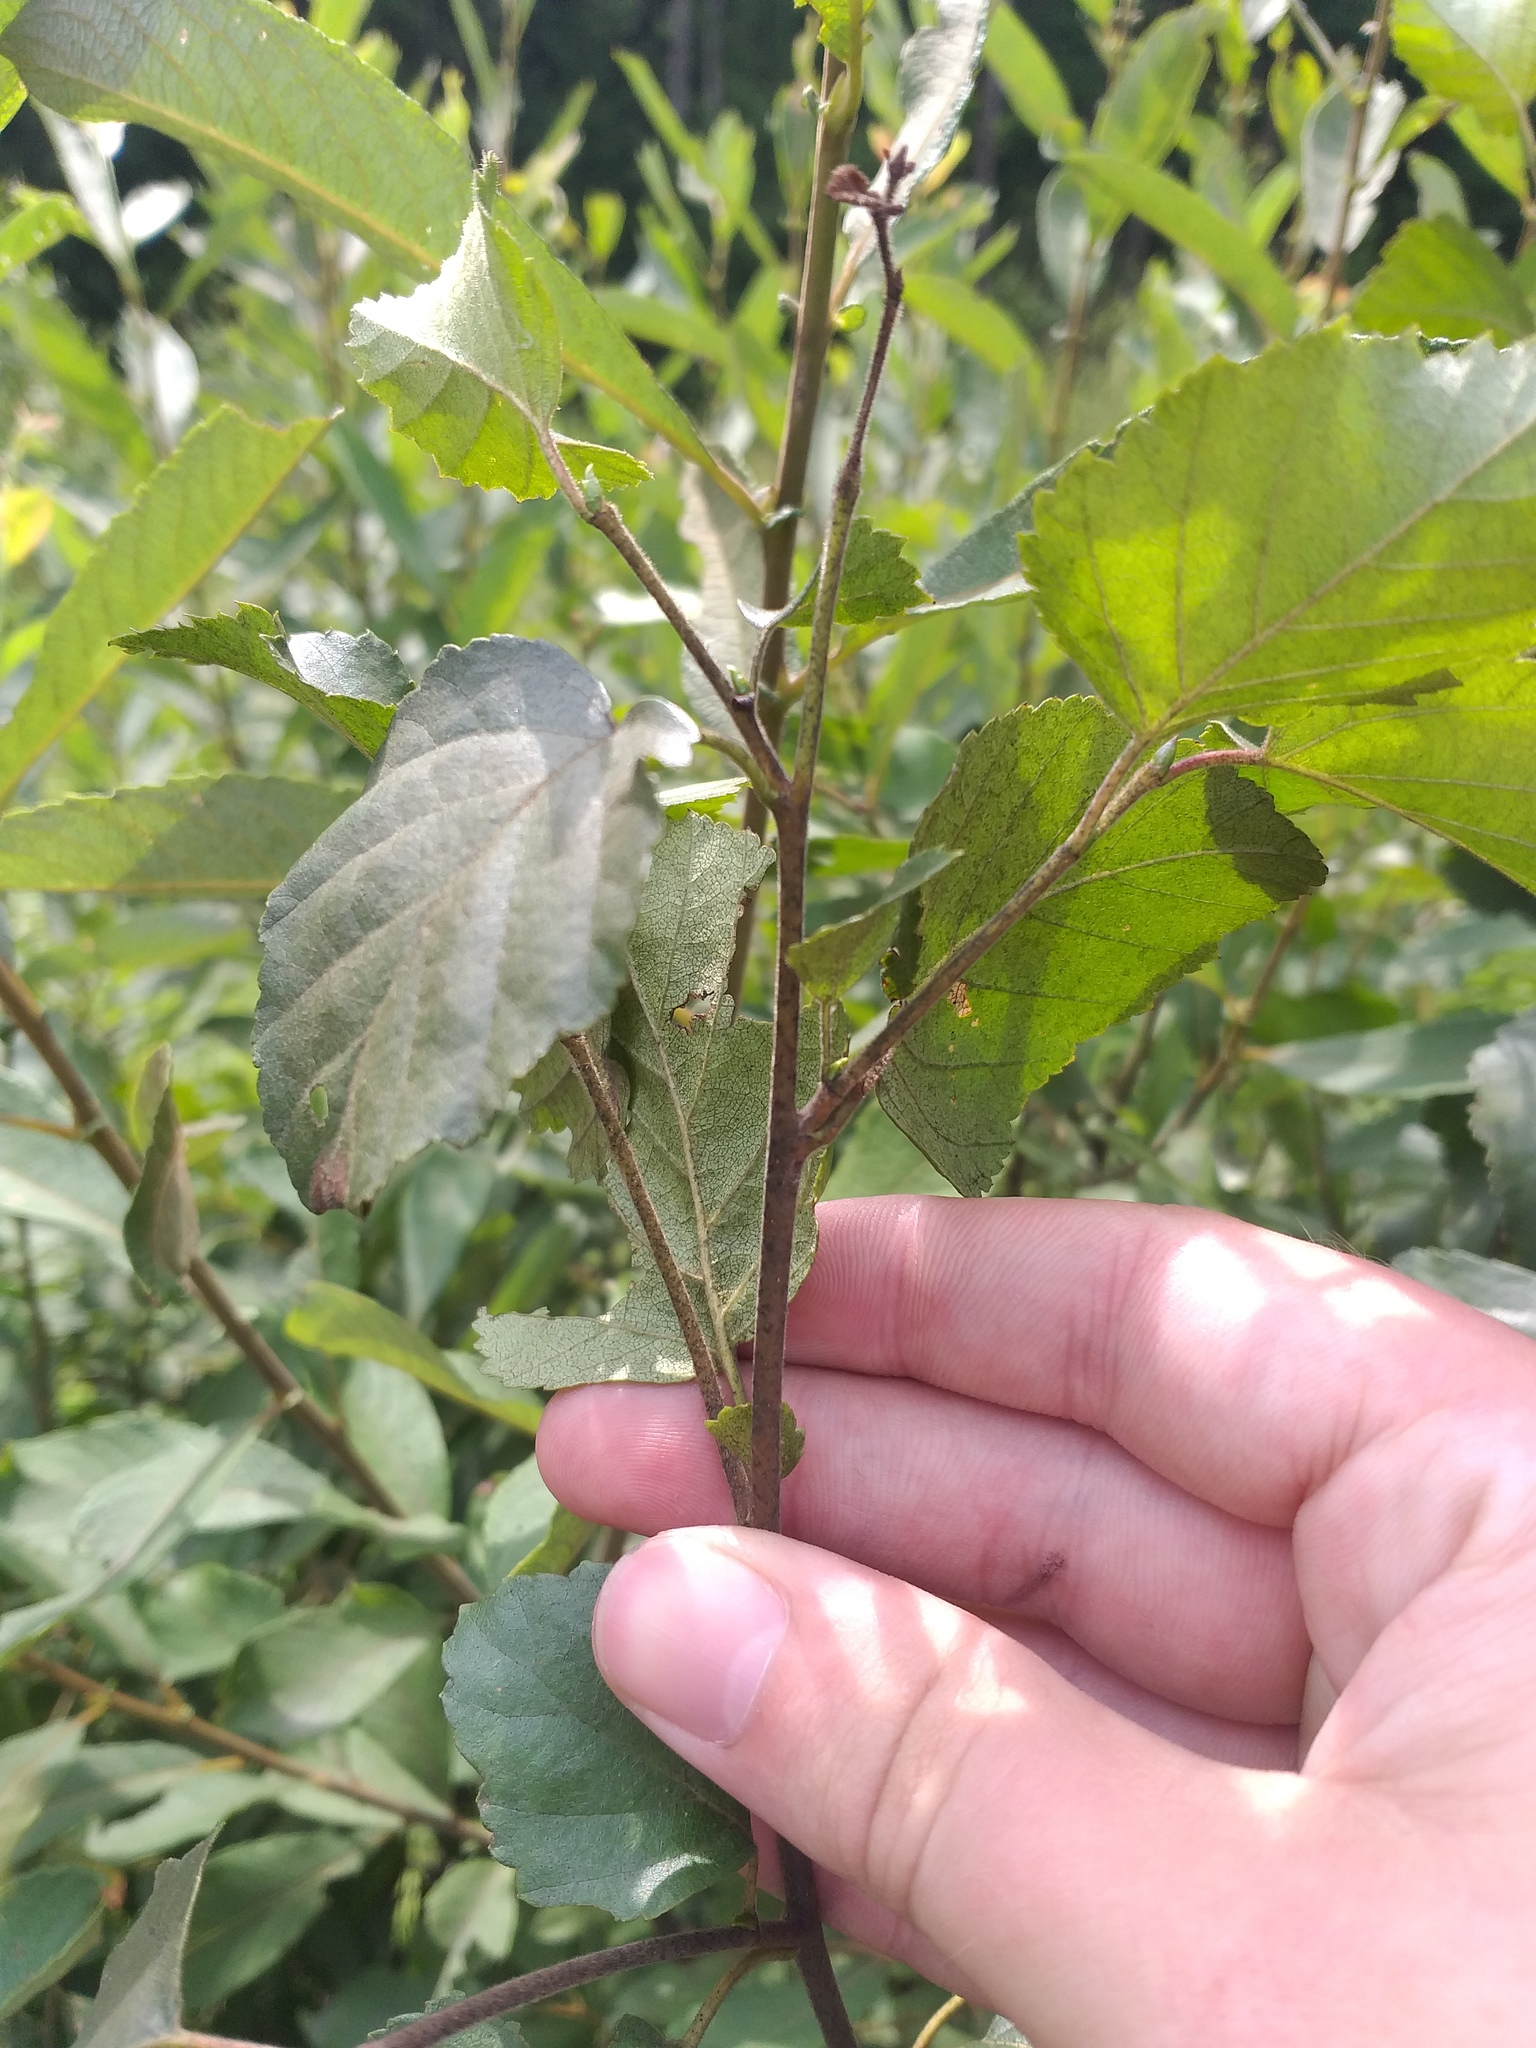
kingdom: Plantae
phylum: Tracheophyta
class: Magnoliopsida
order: Fagales
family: Betulaceae
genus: Betula
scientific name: Betula pubescens
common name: Downy birch
